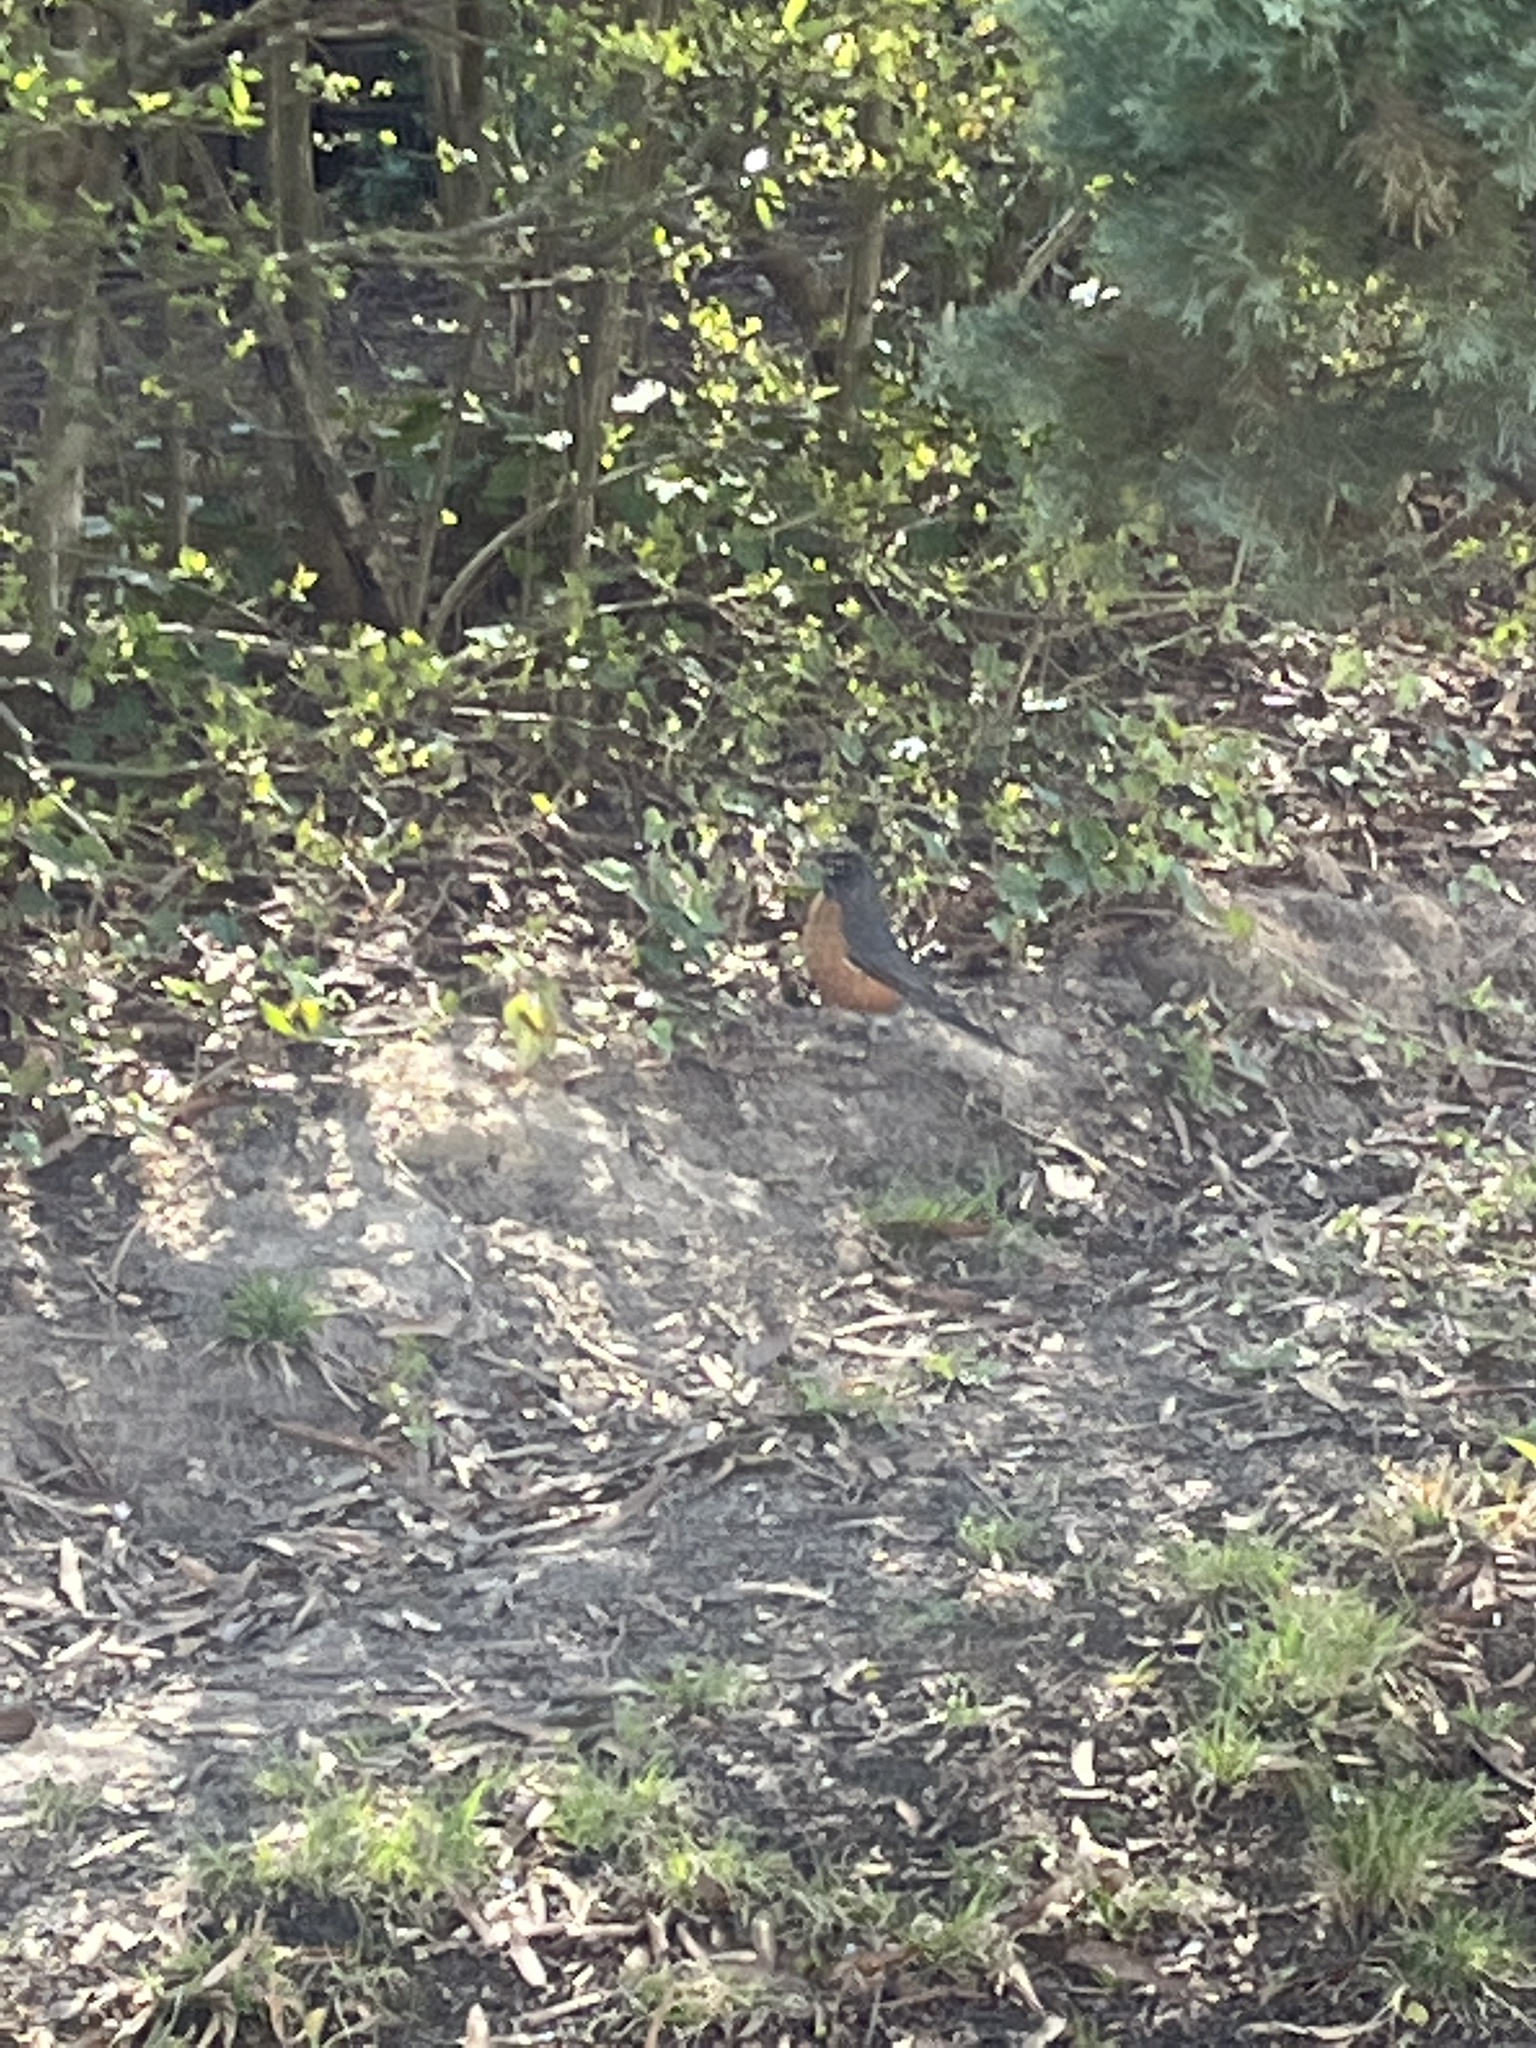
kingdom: Animalia
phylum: Chordata
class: Aves
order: Passeriformes
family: Turdidae
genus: Turdus
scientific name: Turdus migratorius
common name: American robin
